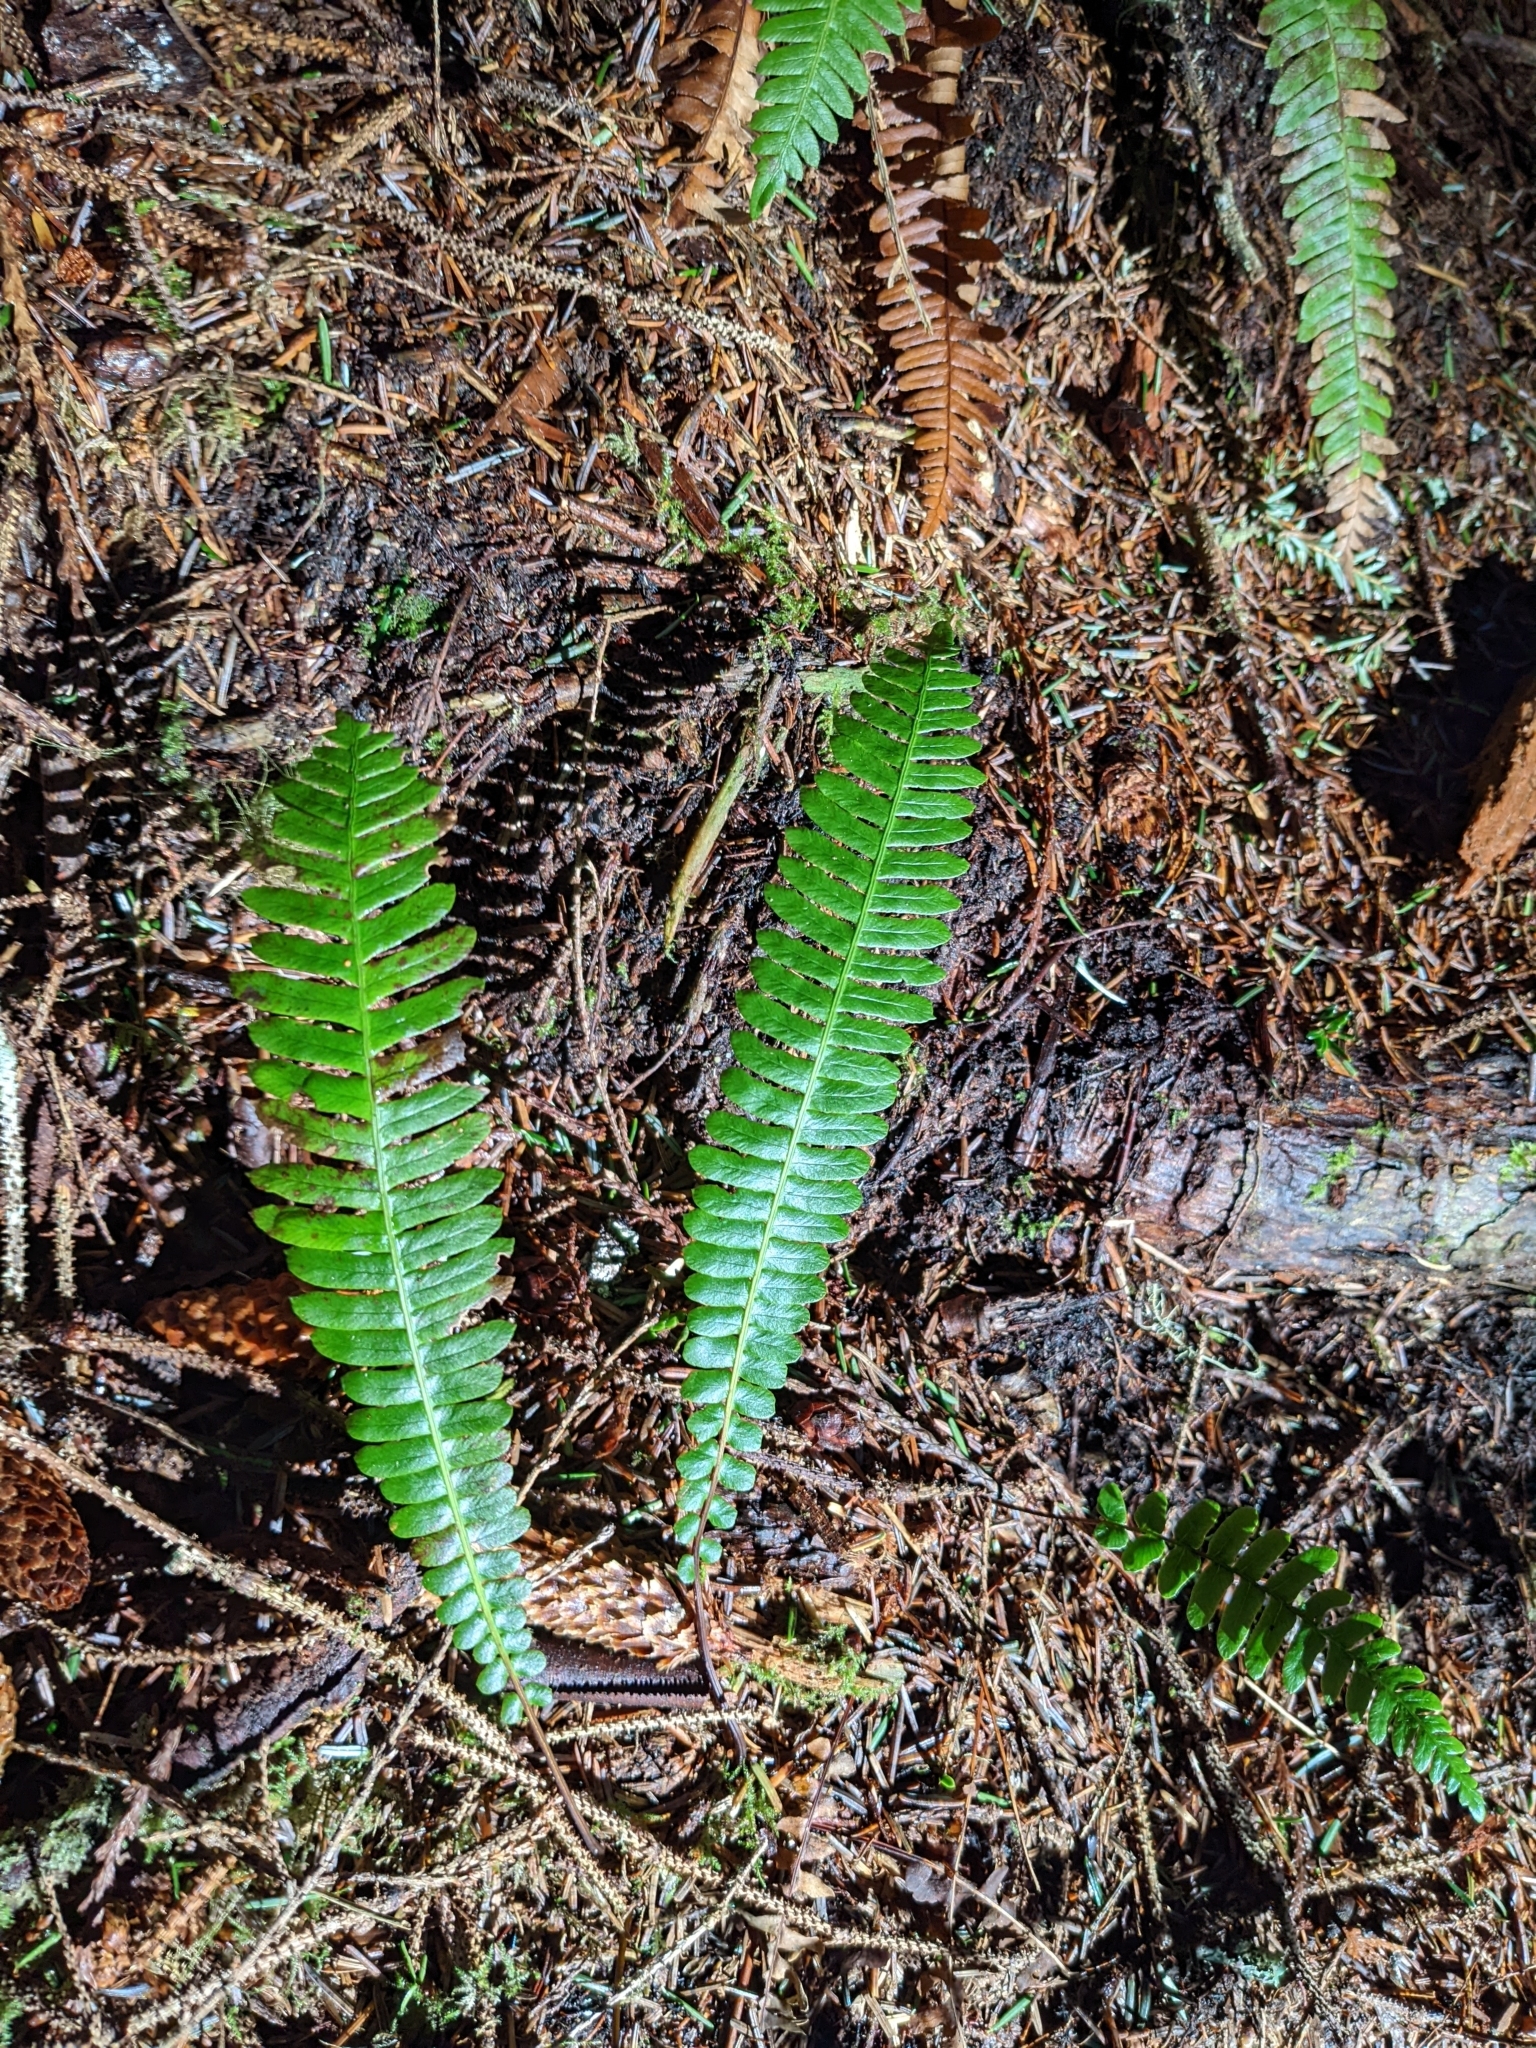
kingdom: Plantae
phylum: Tracheophyta
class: Polypodiopsida
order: Polypodiales
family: Blechnaceae
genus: Struthiopteris
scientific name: Struthiopteris spicant
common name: Deer fern
